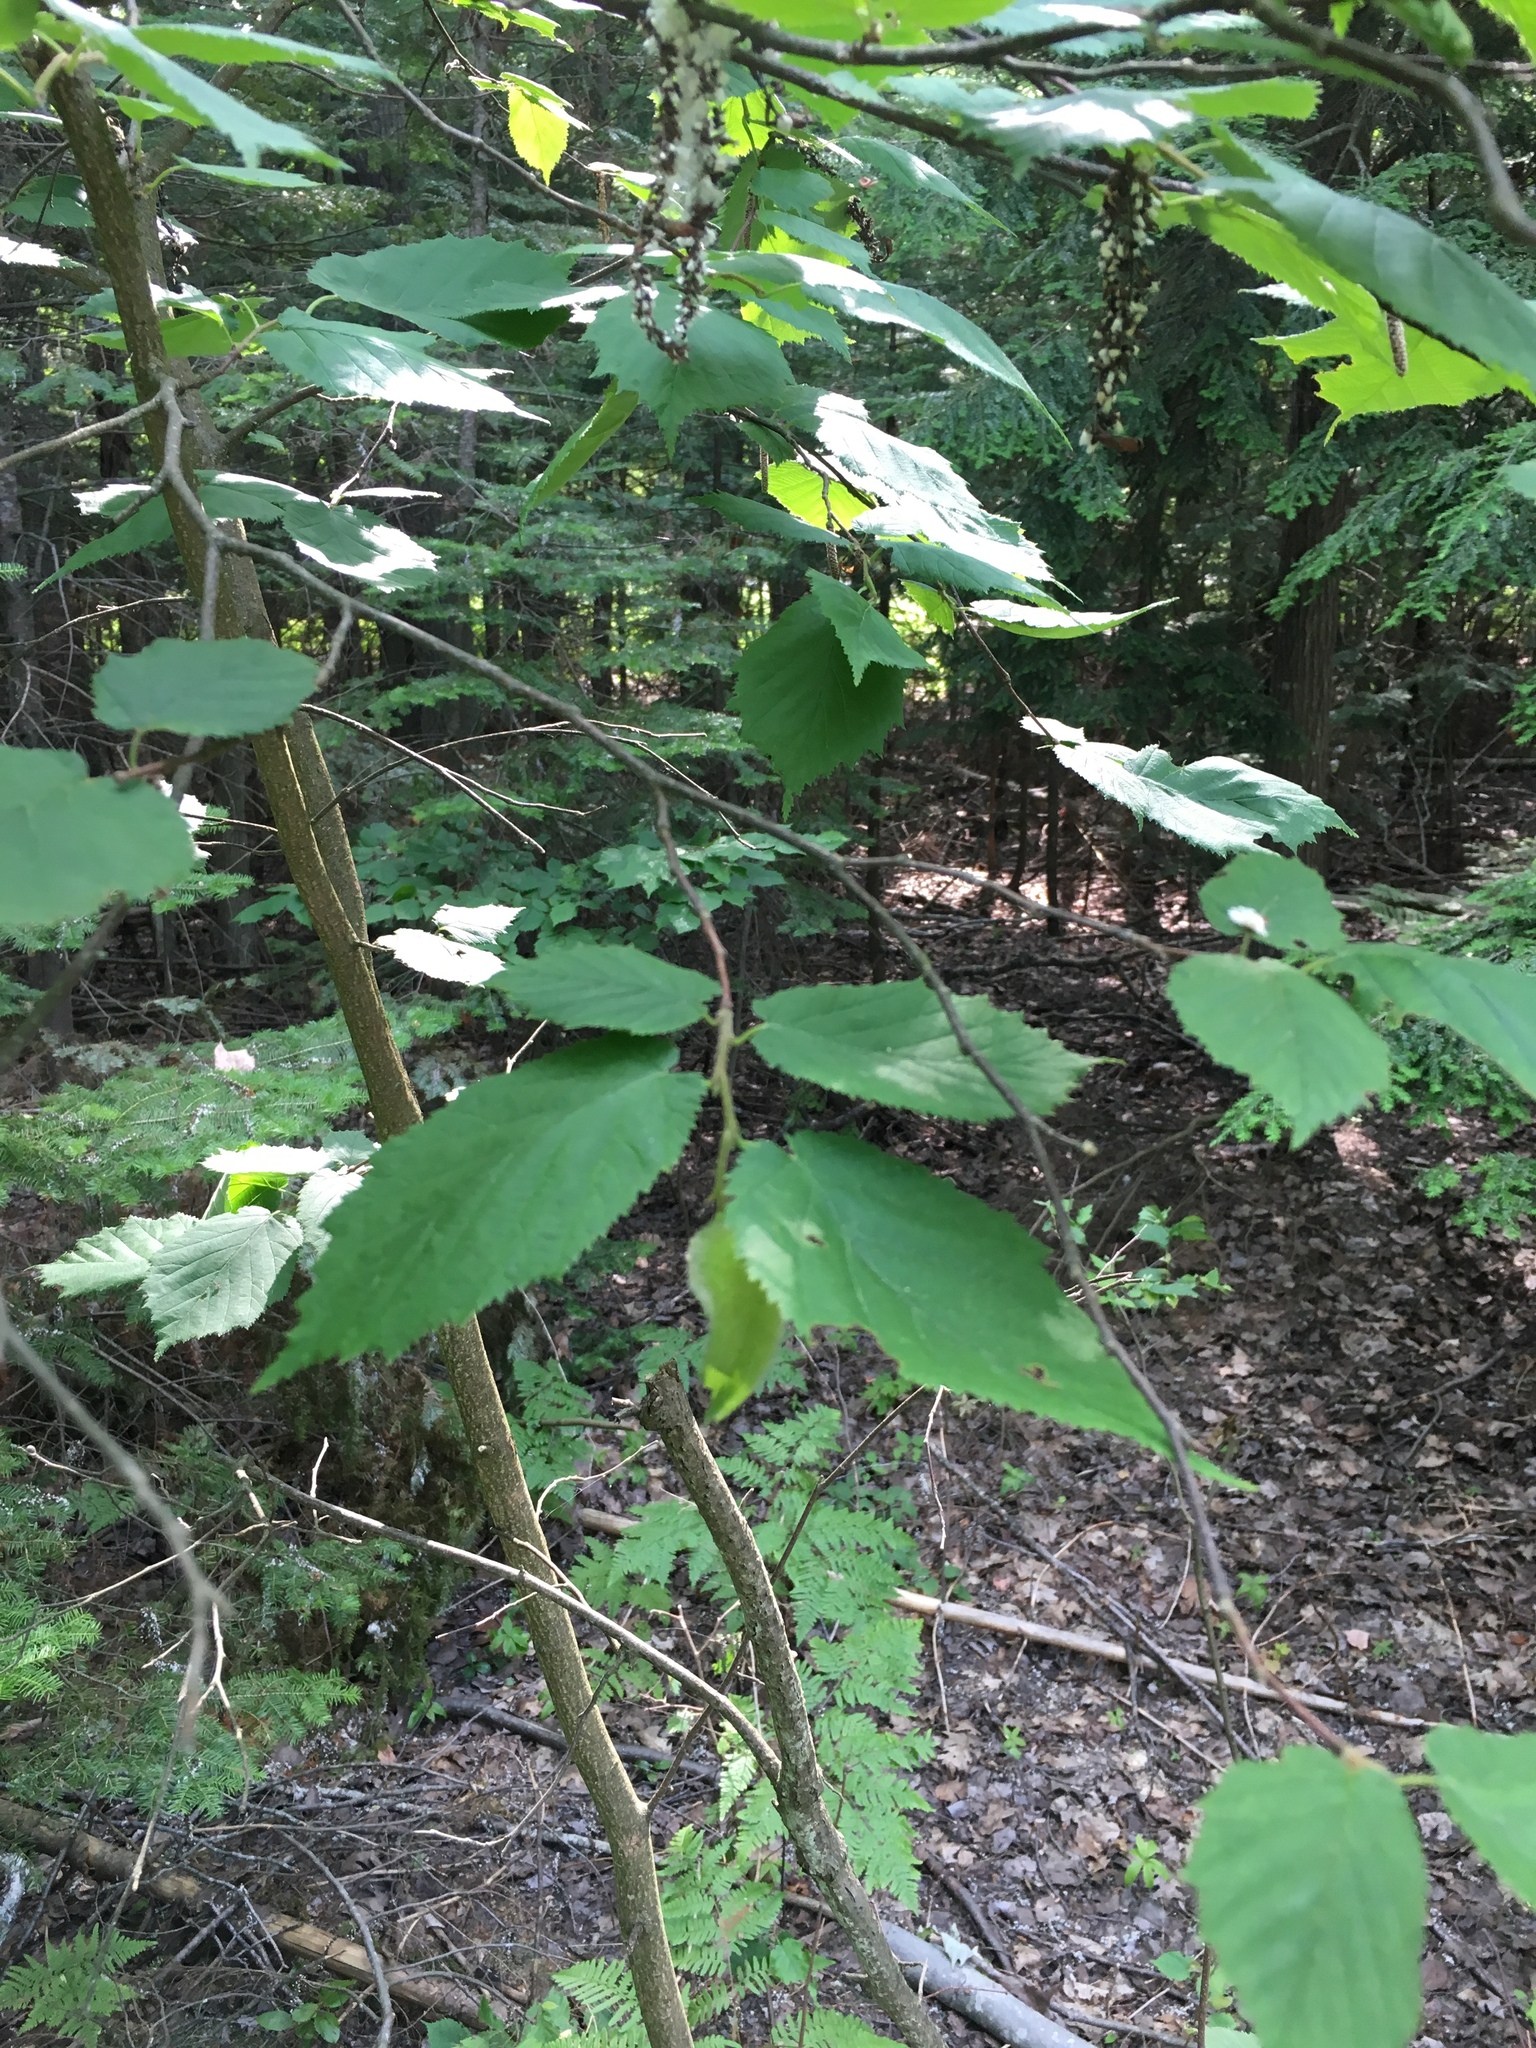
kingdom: Plantae
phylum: Tracheophyta
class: Magnoliopsida
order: Fagales
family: Betulaceae
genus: Corylus
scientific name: Corylus cornuta
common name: Beaked hazel
